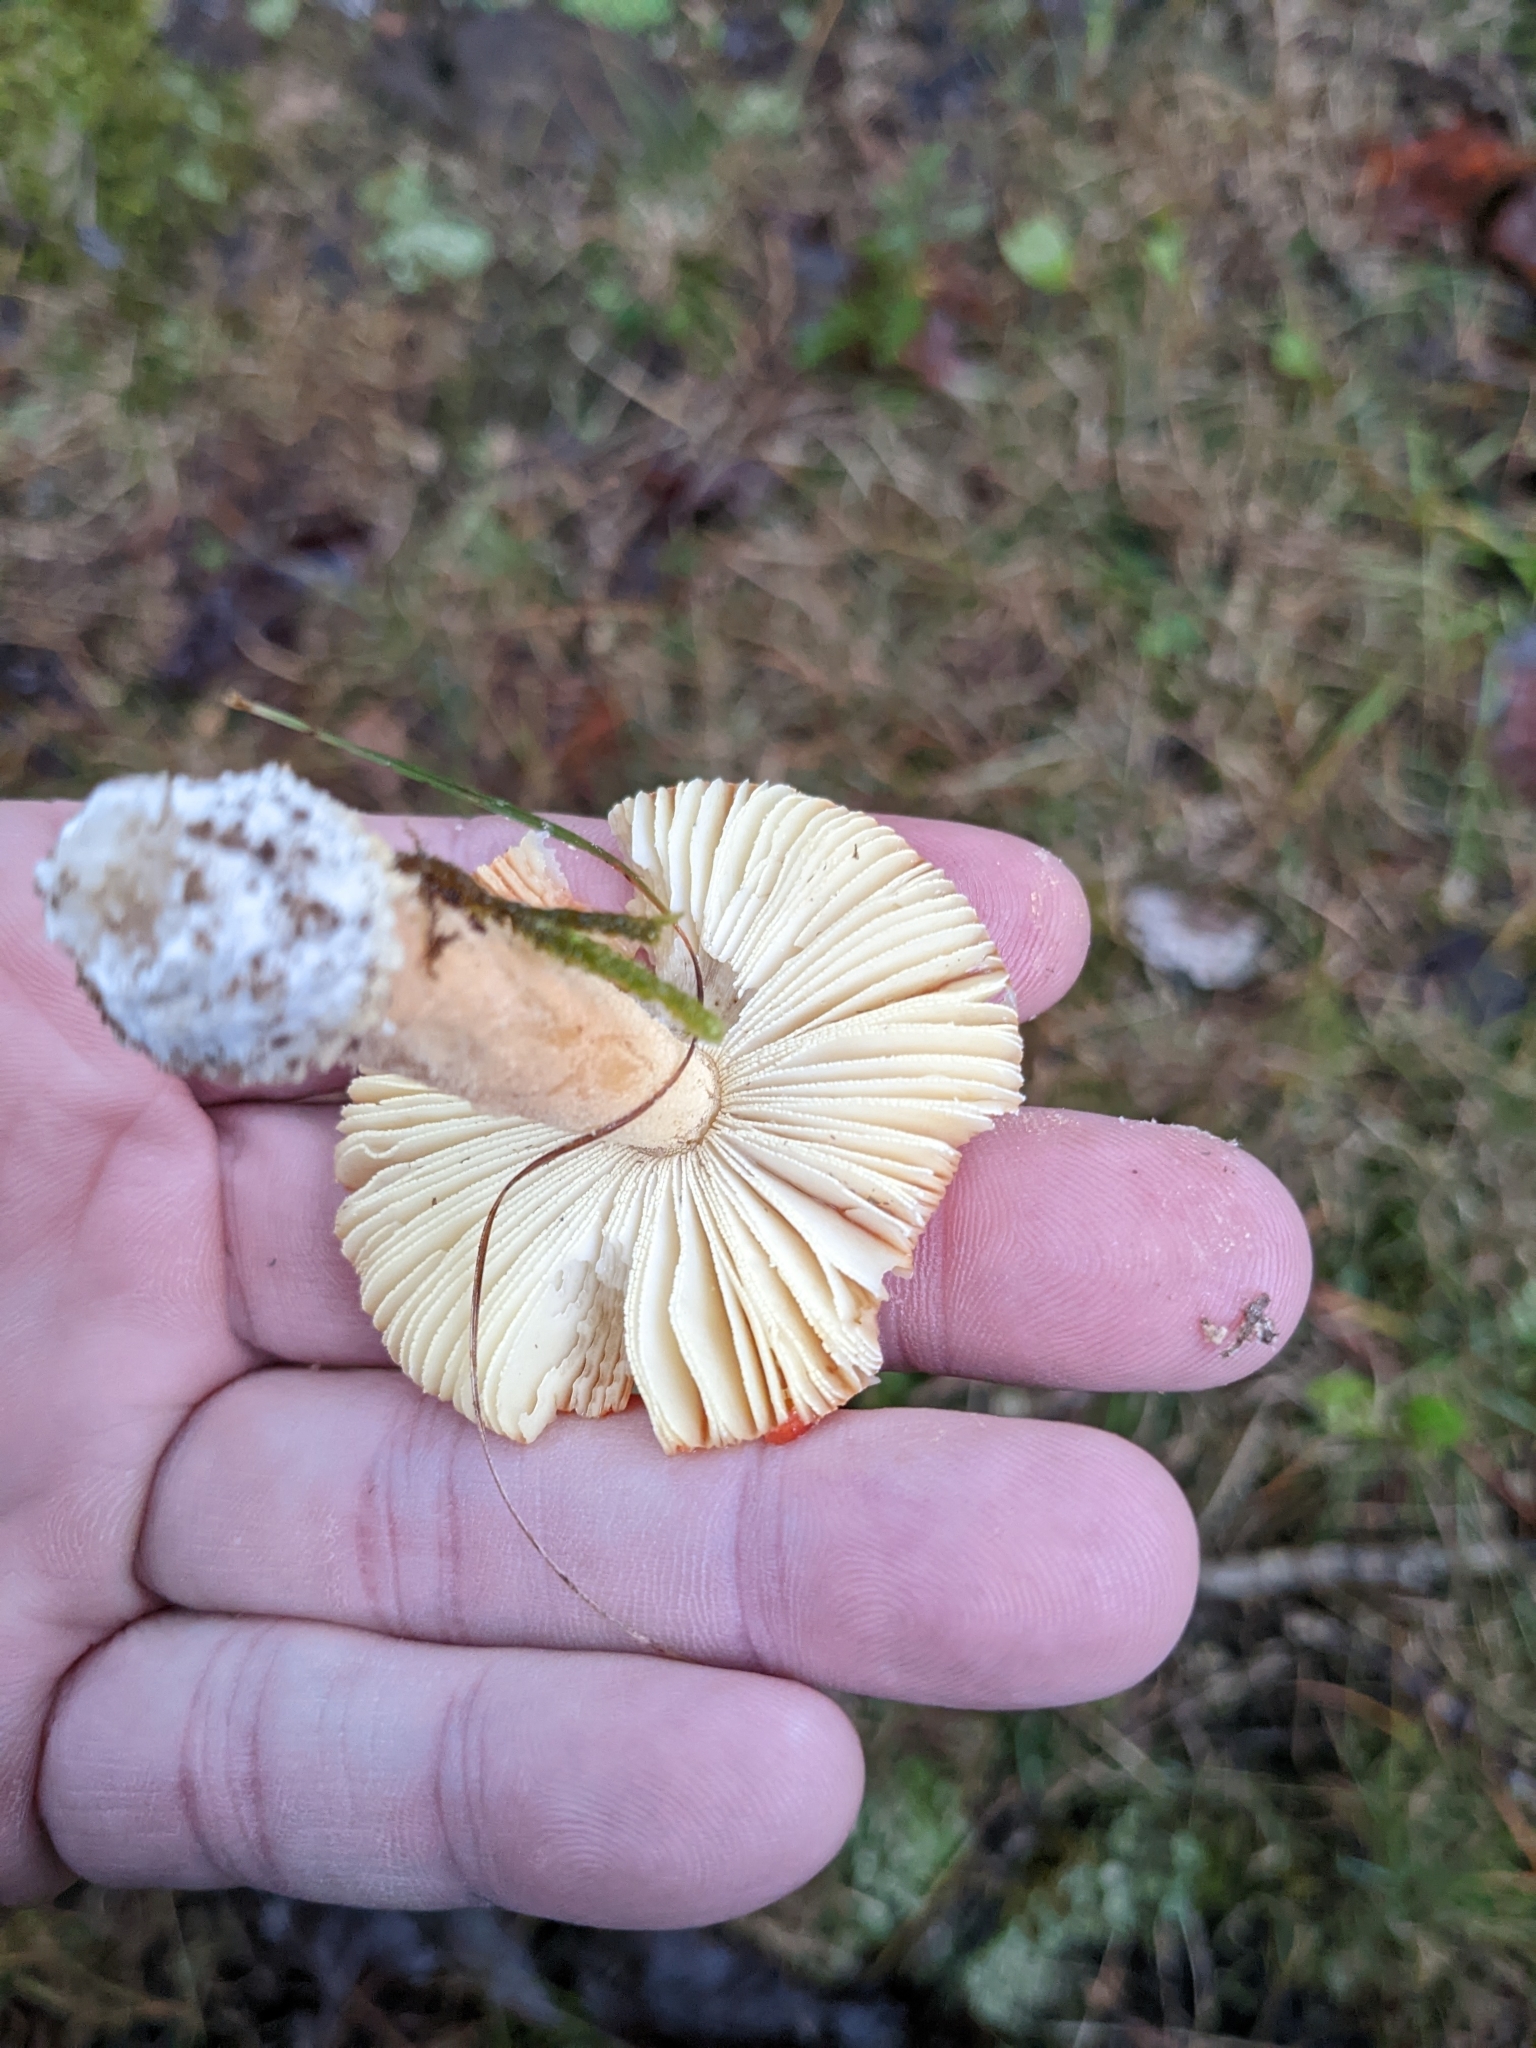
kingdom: Fungi
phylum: Basidiomycota
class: Agaricomycetes
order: Agaricales
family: Amanitaceae
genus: Amanita
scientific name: Amanita parcivolvata
